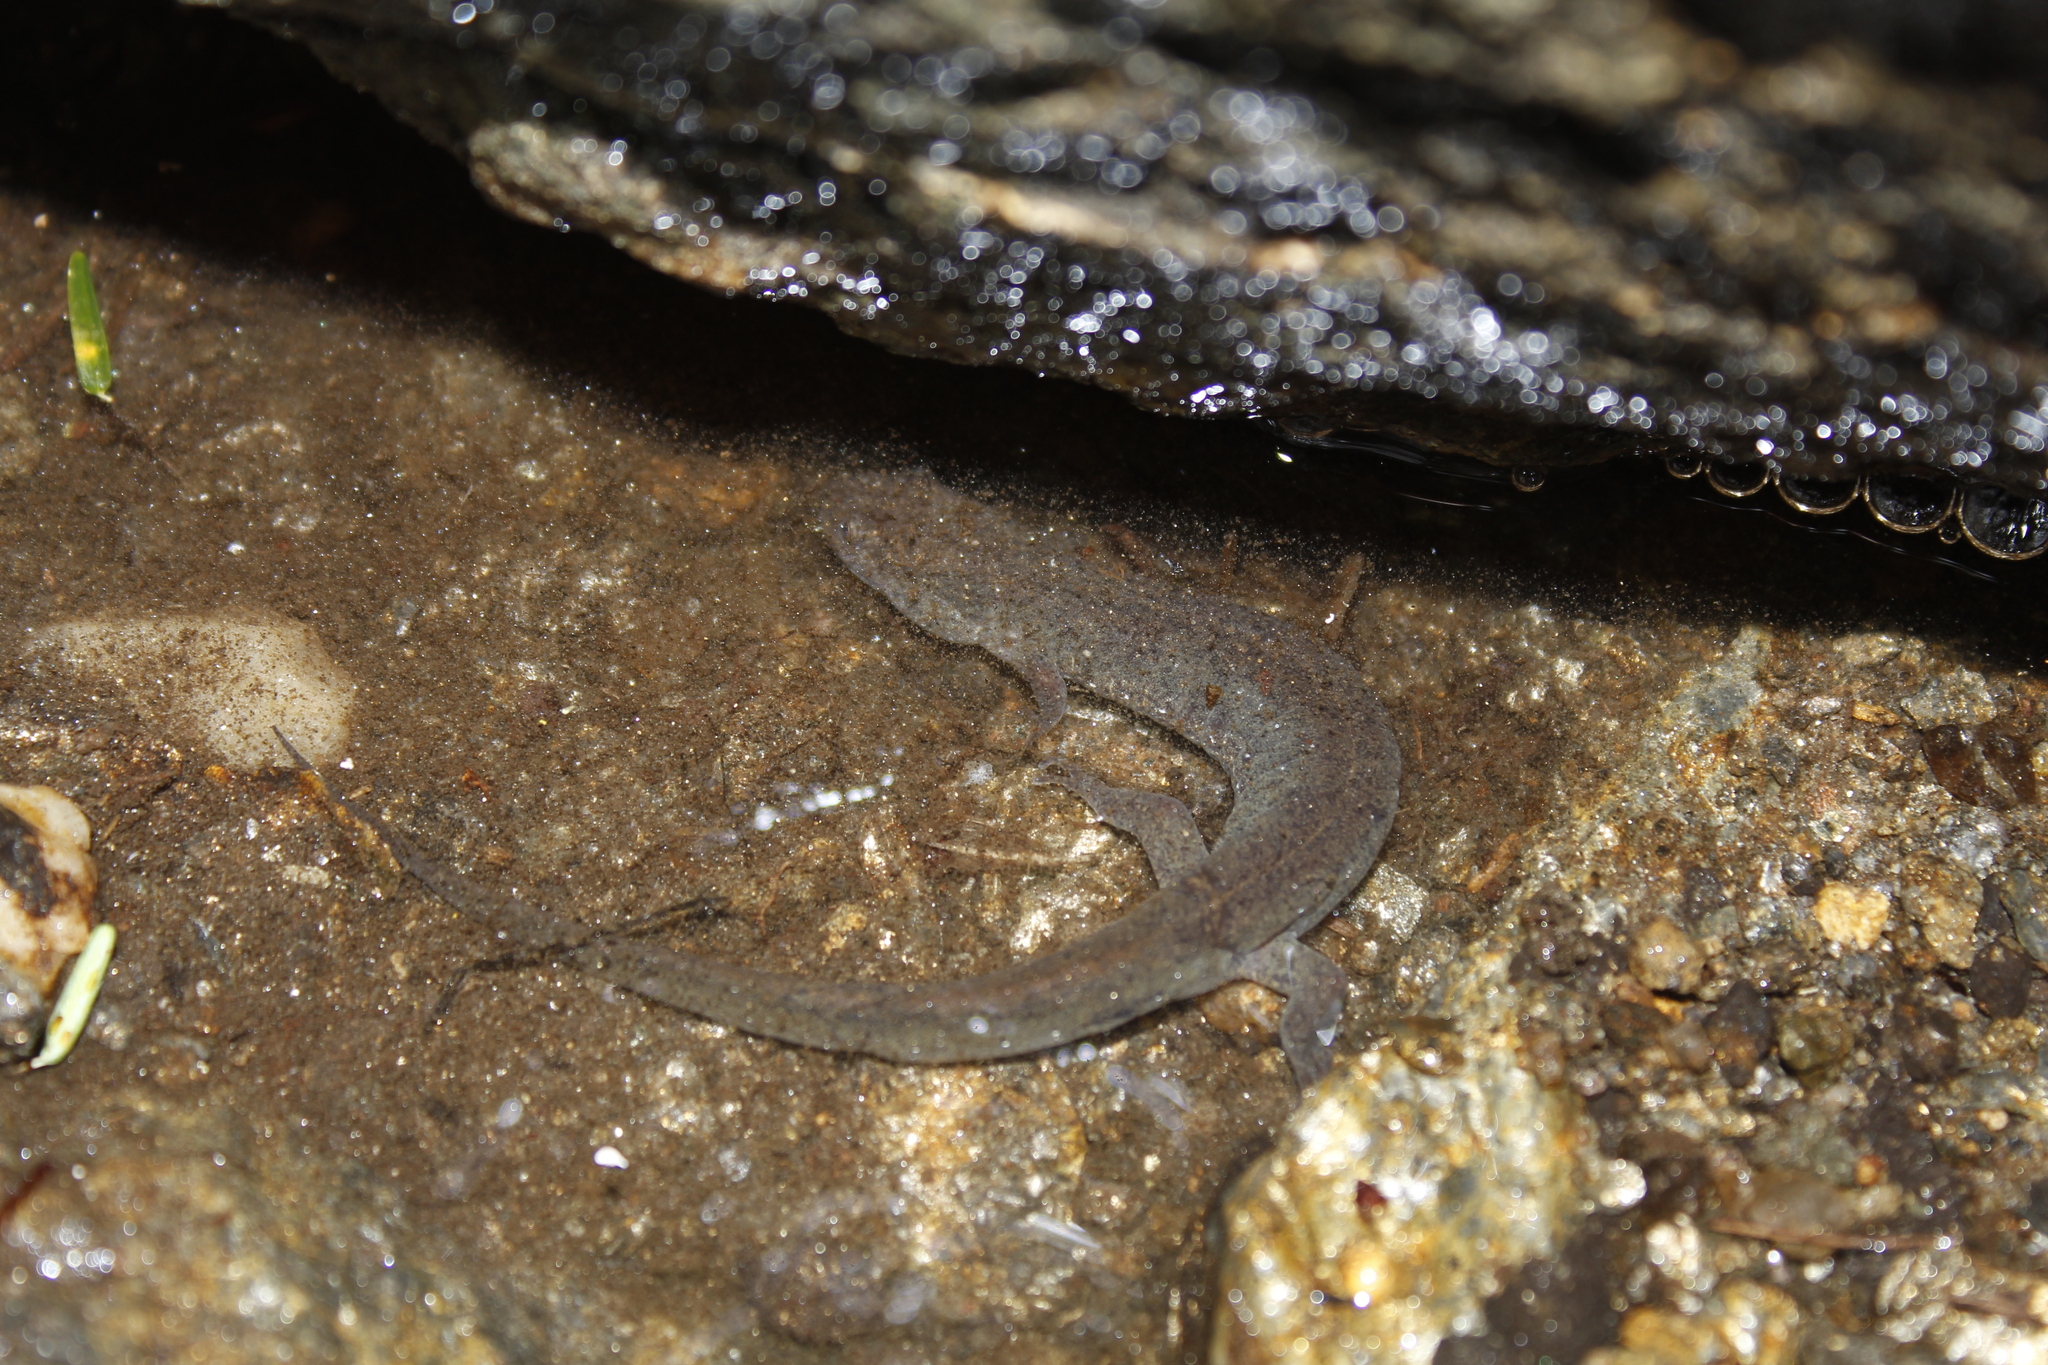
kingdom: Animalia
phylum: Chordata
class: Amphibia
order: Caudata
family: Plethodontidae
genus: Desmognathus
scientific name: Desmognathus fuscus
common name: Northern dusky salamander
